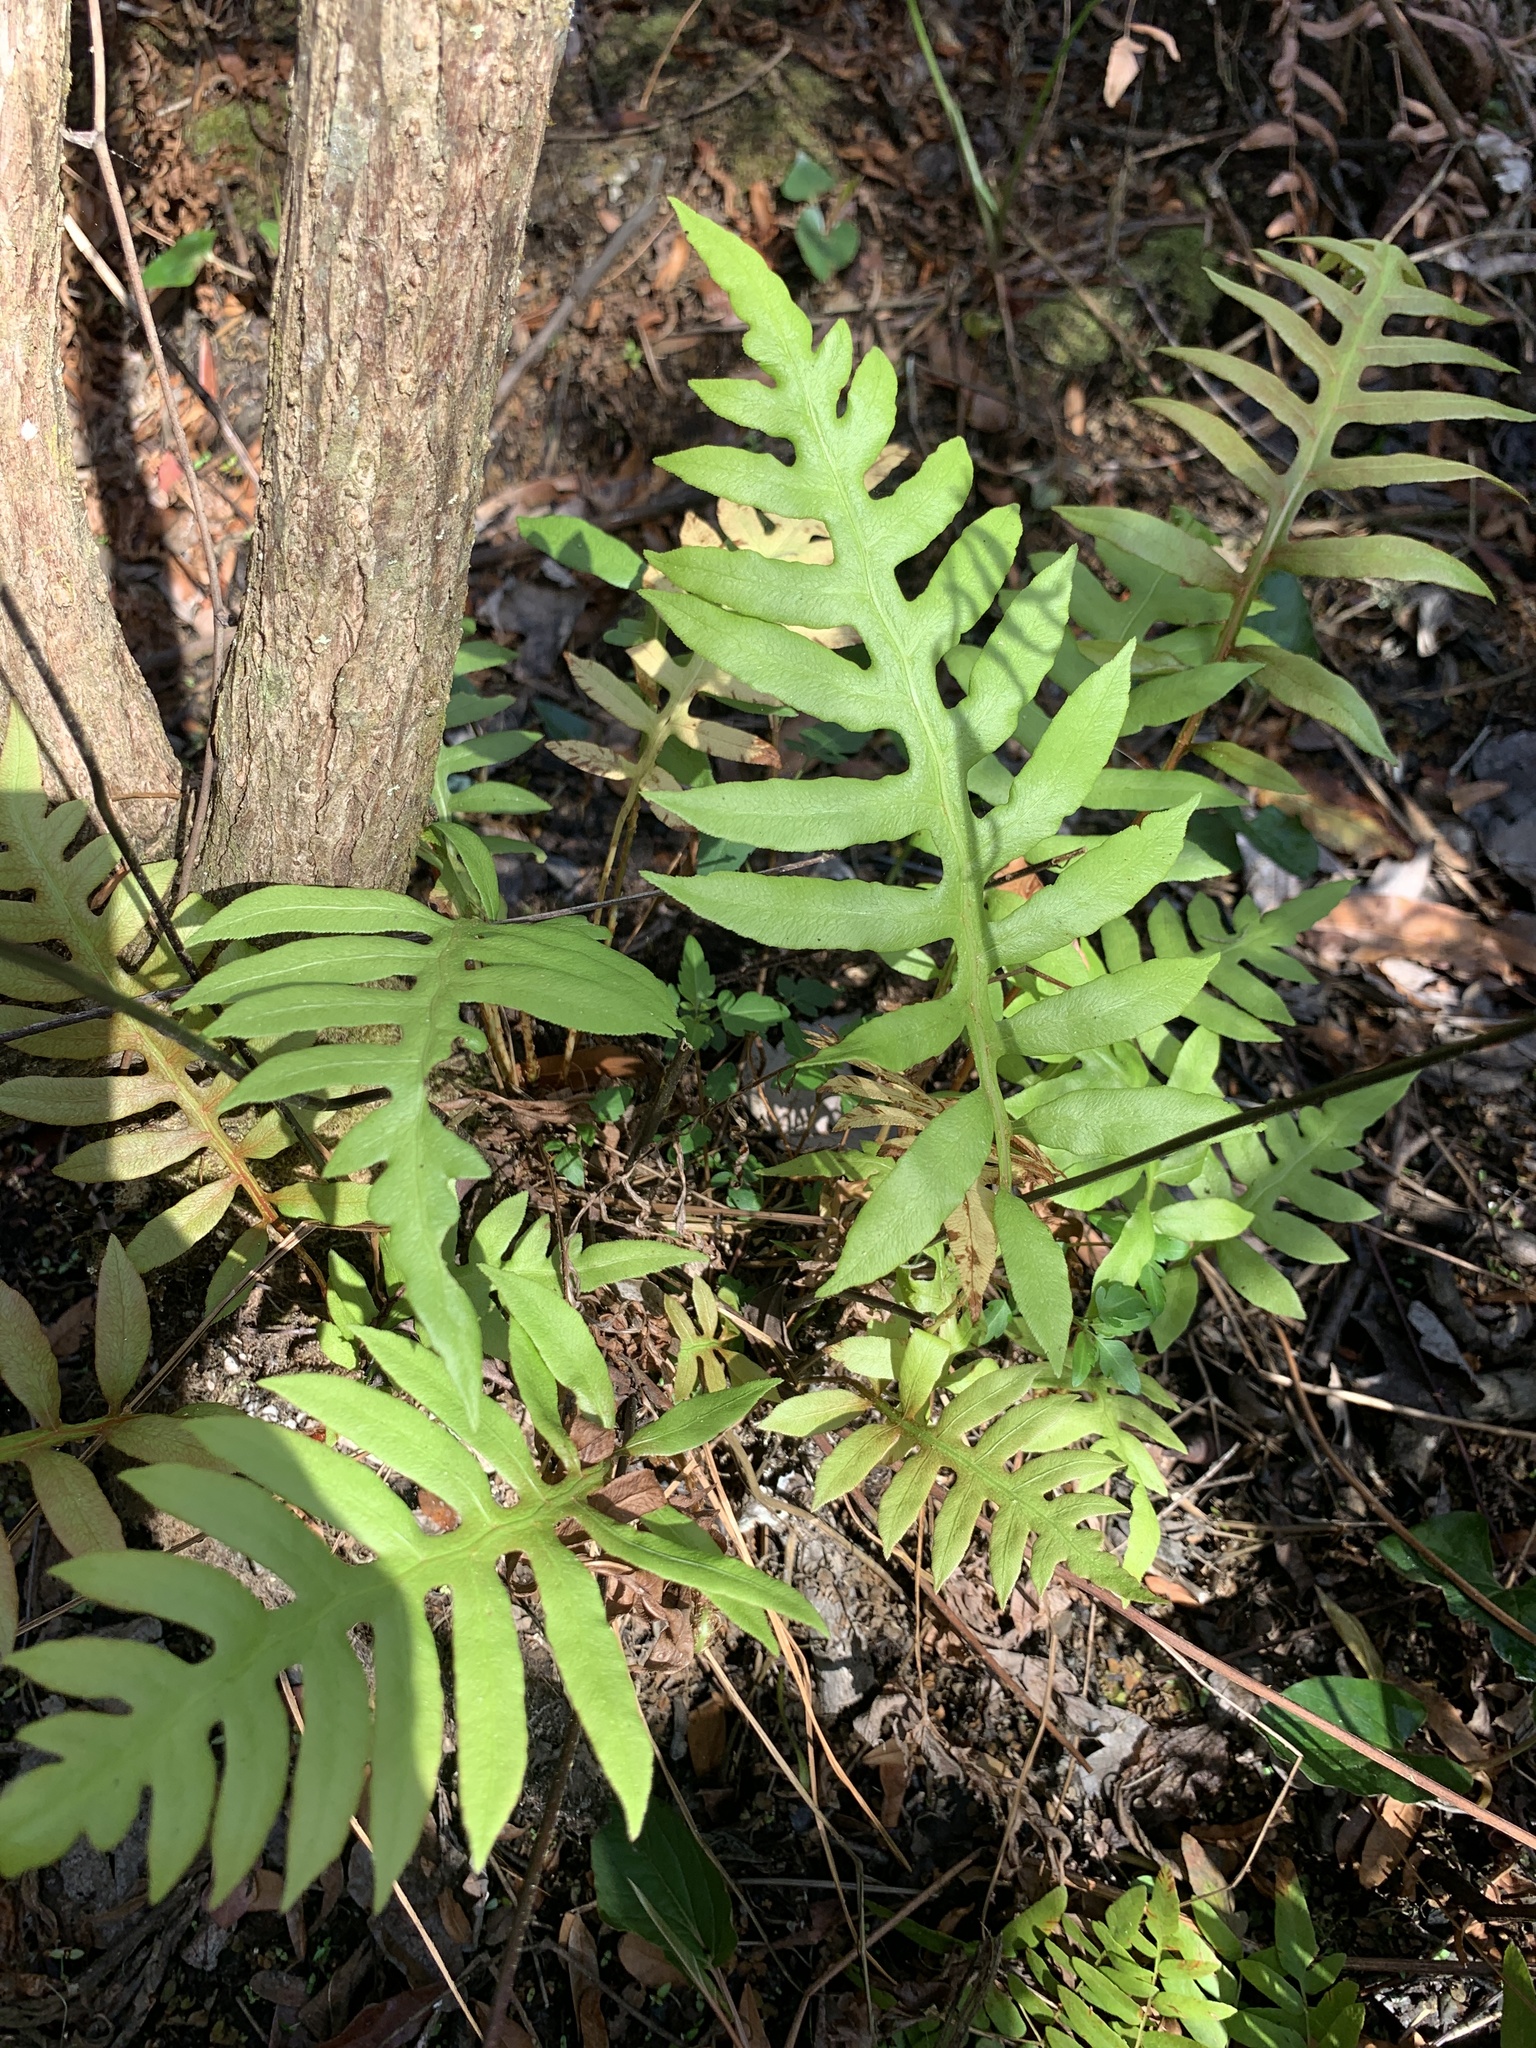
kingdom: Plantae
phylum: Tracheophyta
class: Polypodiopsida
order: Polypodiales
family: Blechnaceae
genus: Lorinseria
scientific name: Lorinseria areolata
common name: Dwarf chain fern
